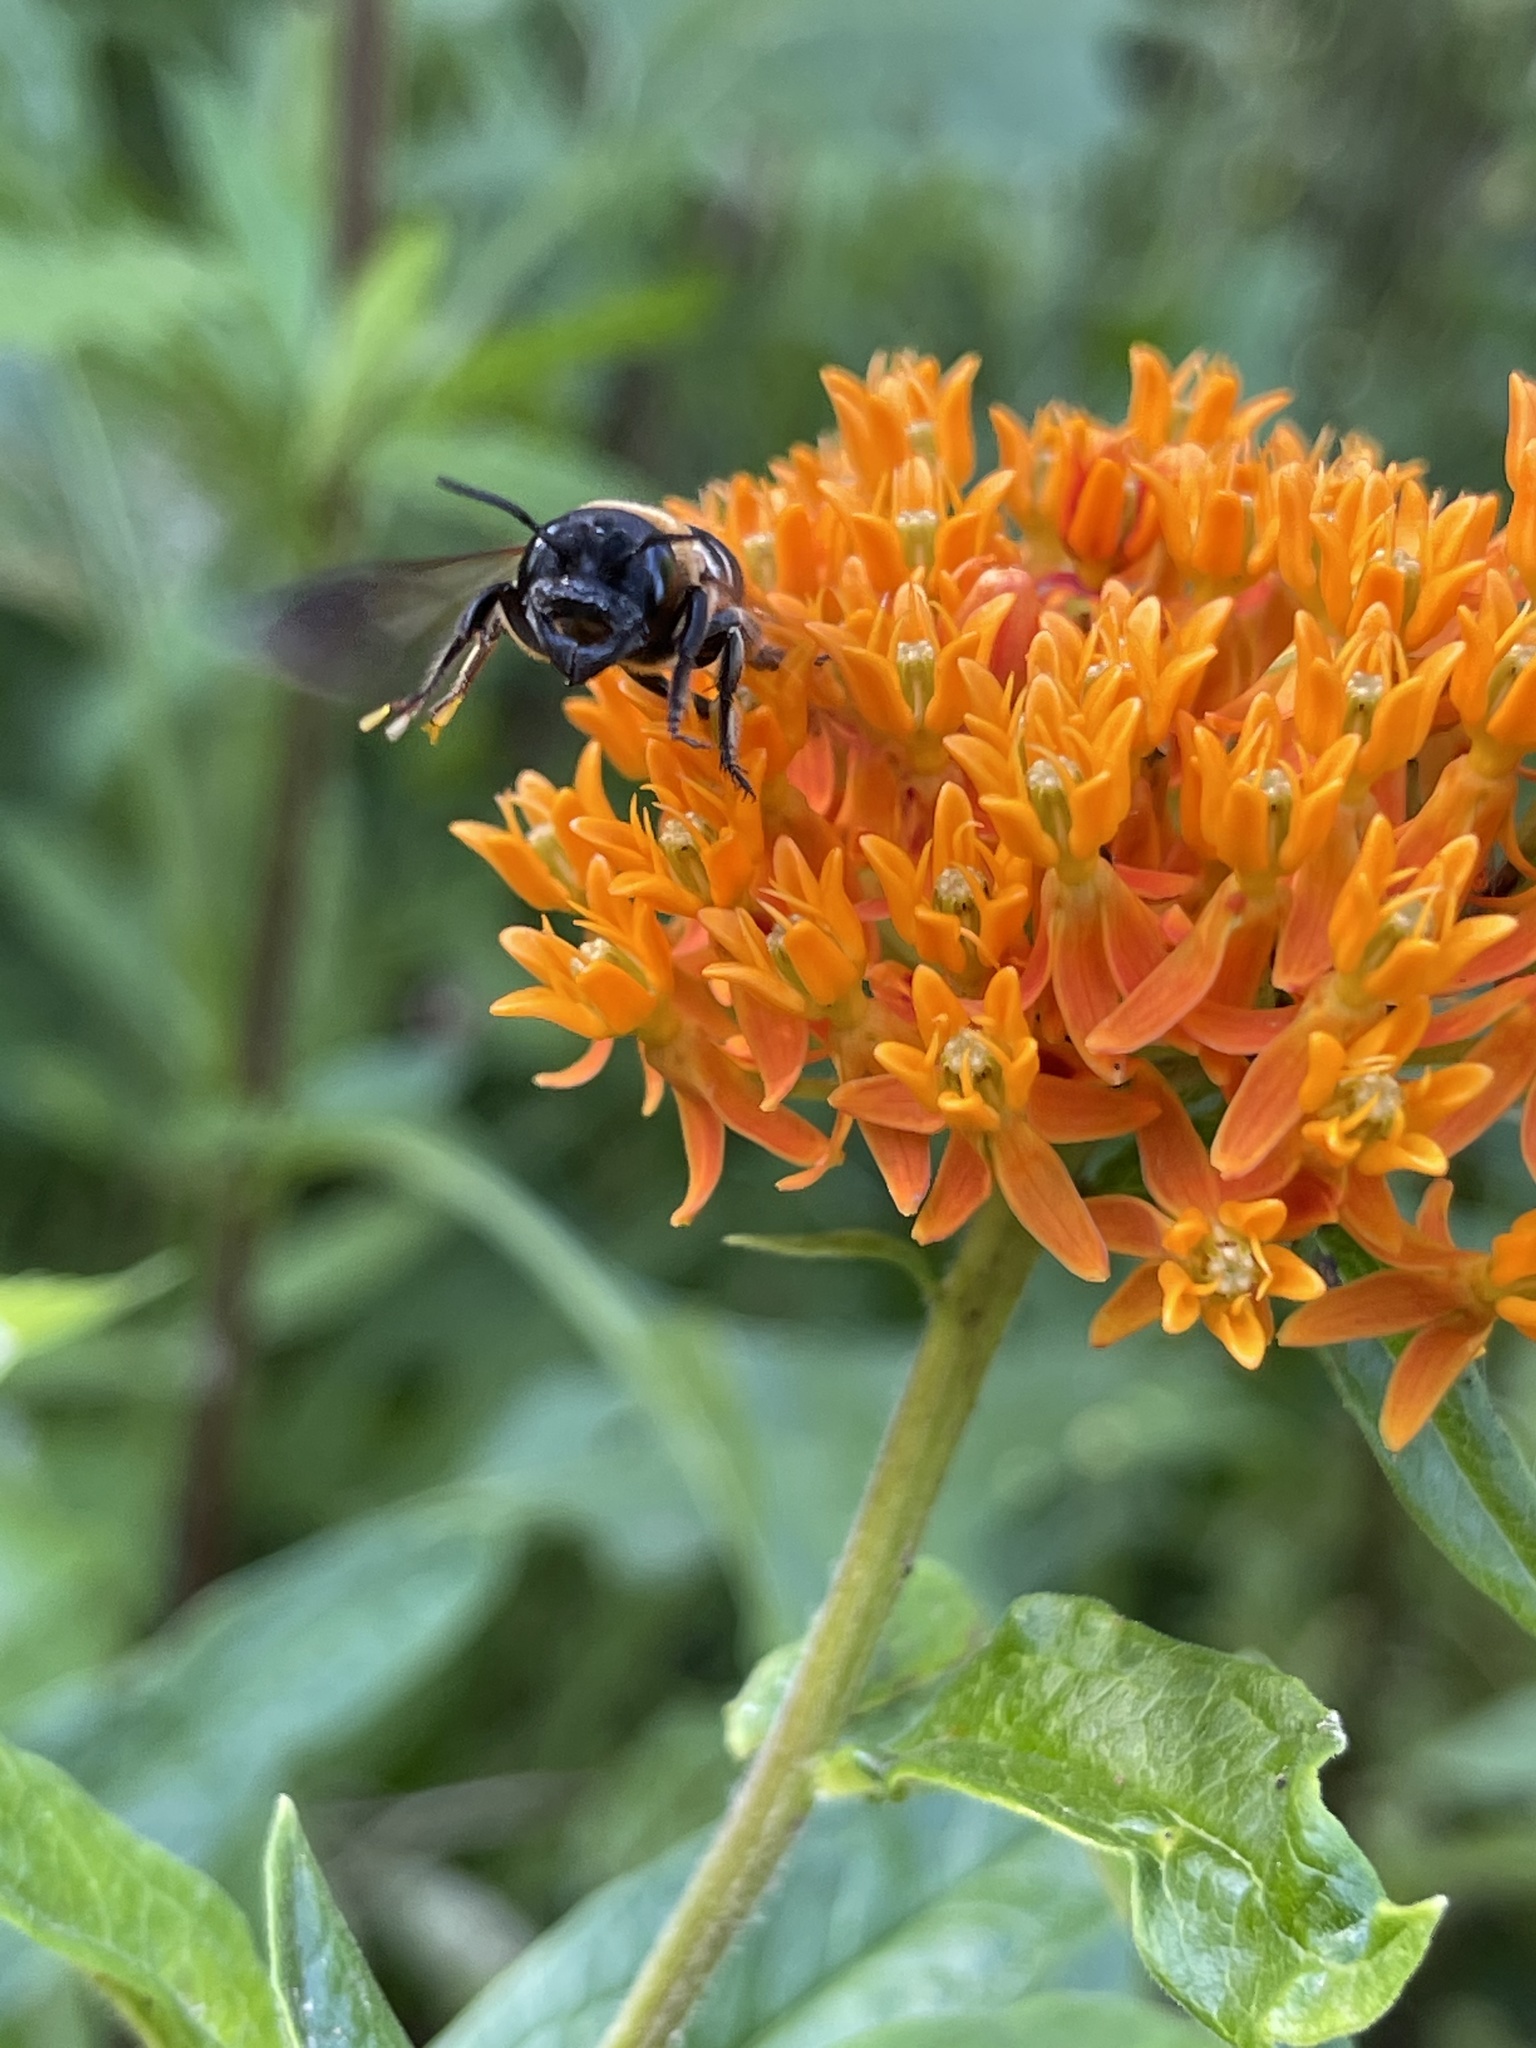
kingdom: Animalia
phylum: Arthropoda
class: Insecta
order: Hymenoptera
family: Megachilidae
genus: Megachile
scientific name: Megachile sculpturalis
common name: Sculptured resin bee
